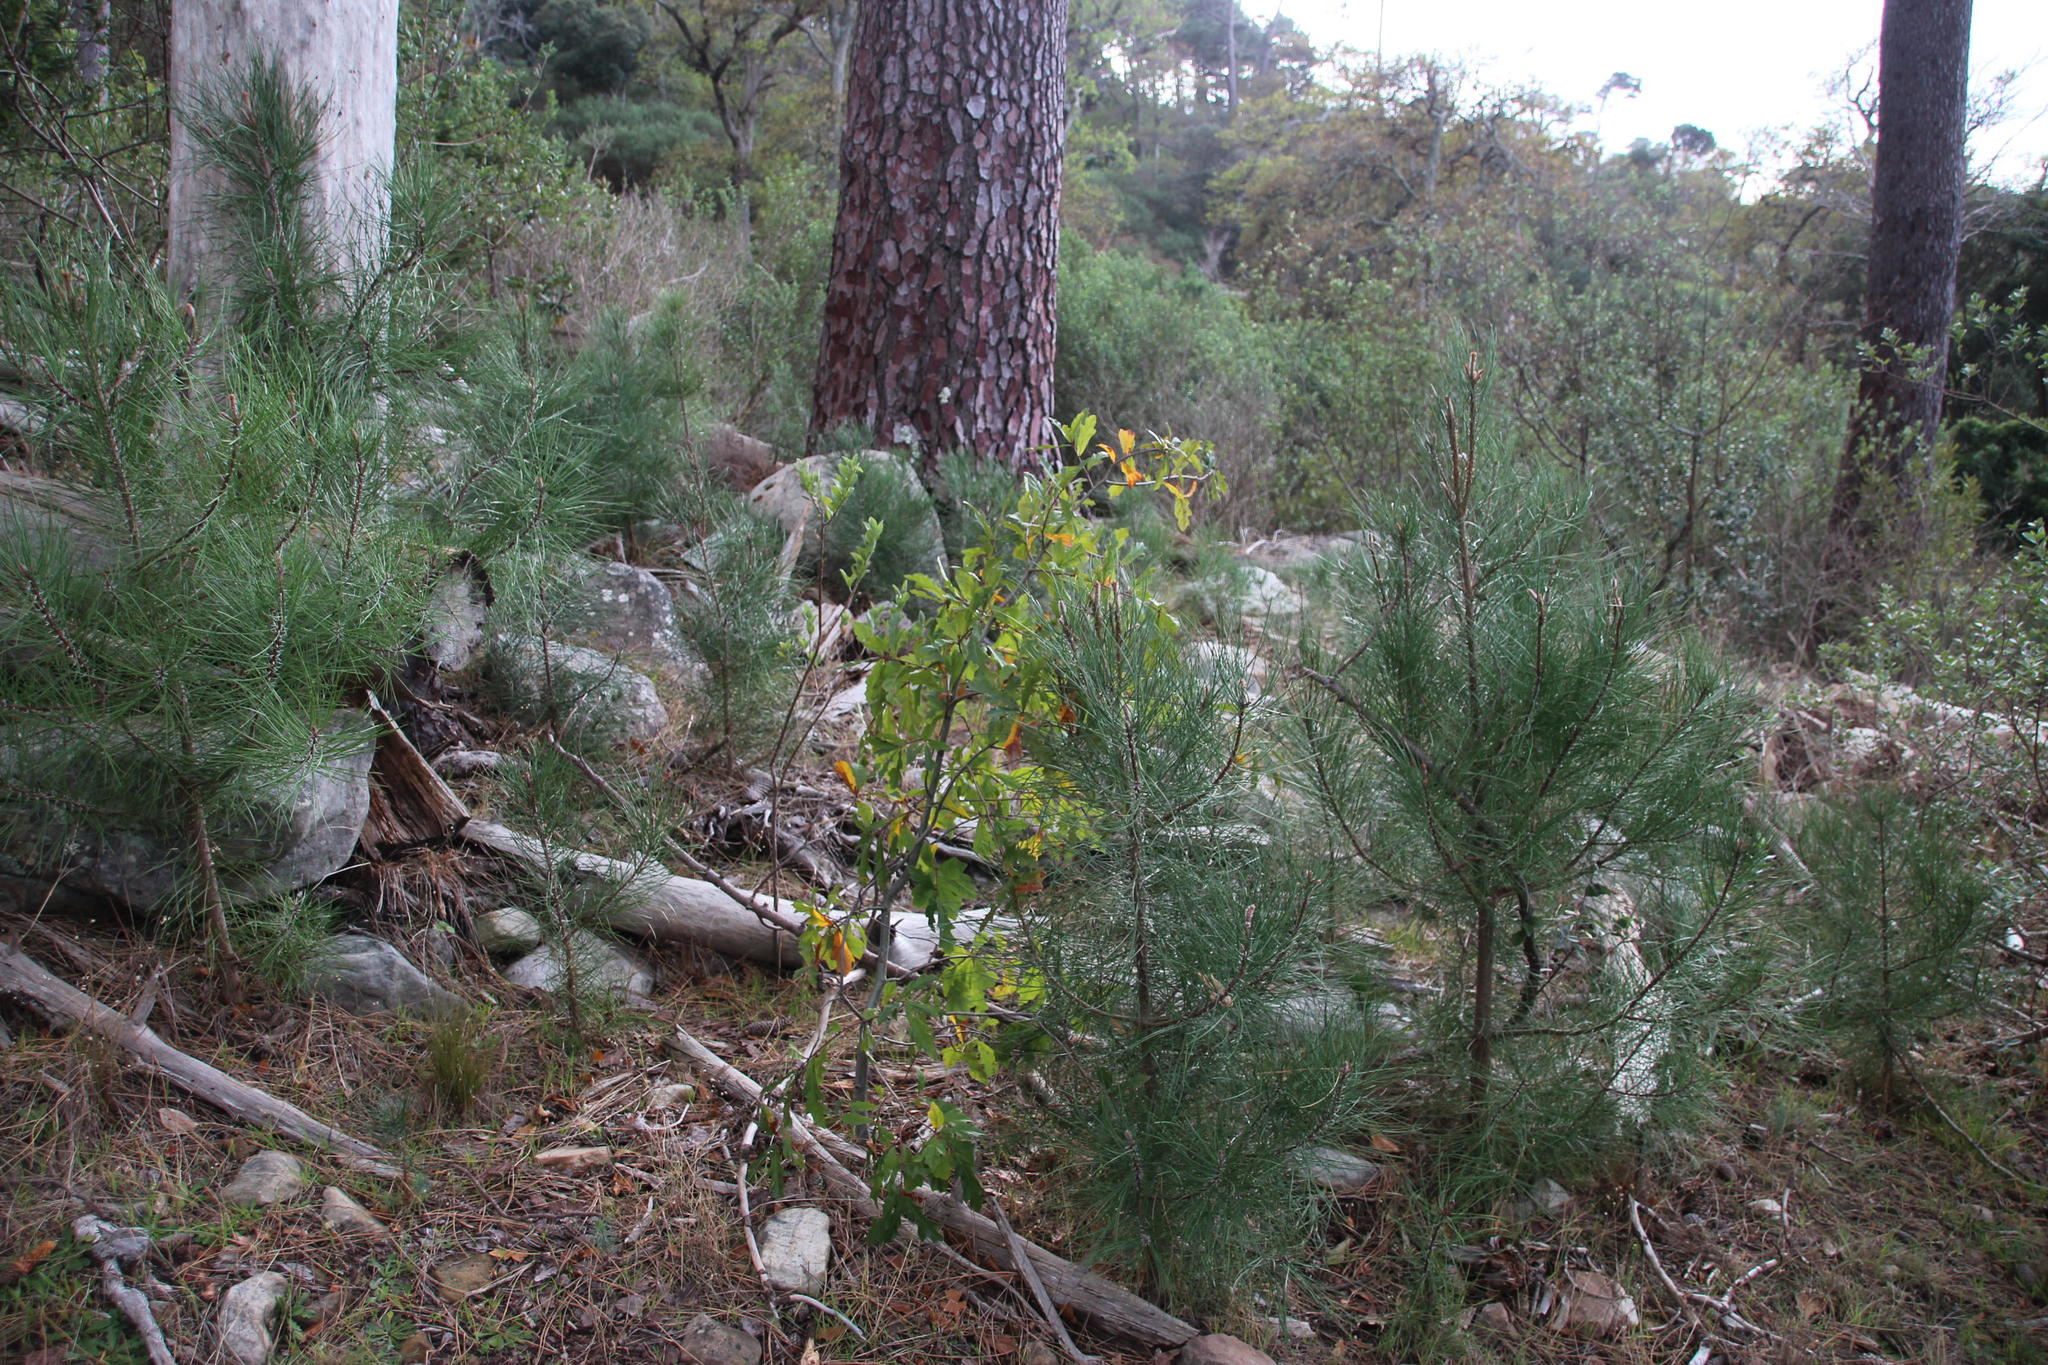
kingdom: Plantae
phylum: Tracheophyta
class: Pinopsida
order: Pinales
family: Pinaceae
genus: Pinus
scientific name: Pinus pinaster
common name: Maritime pine
